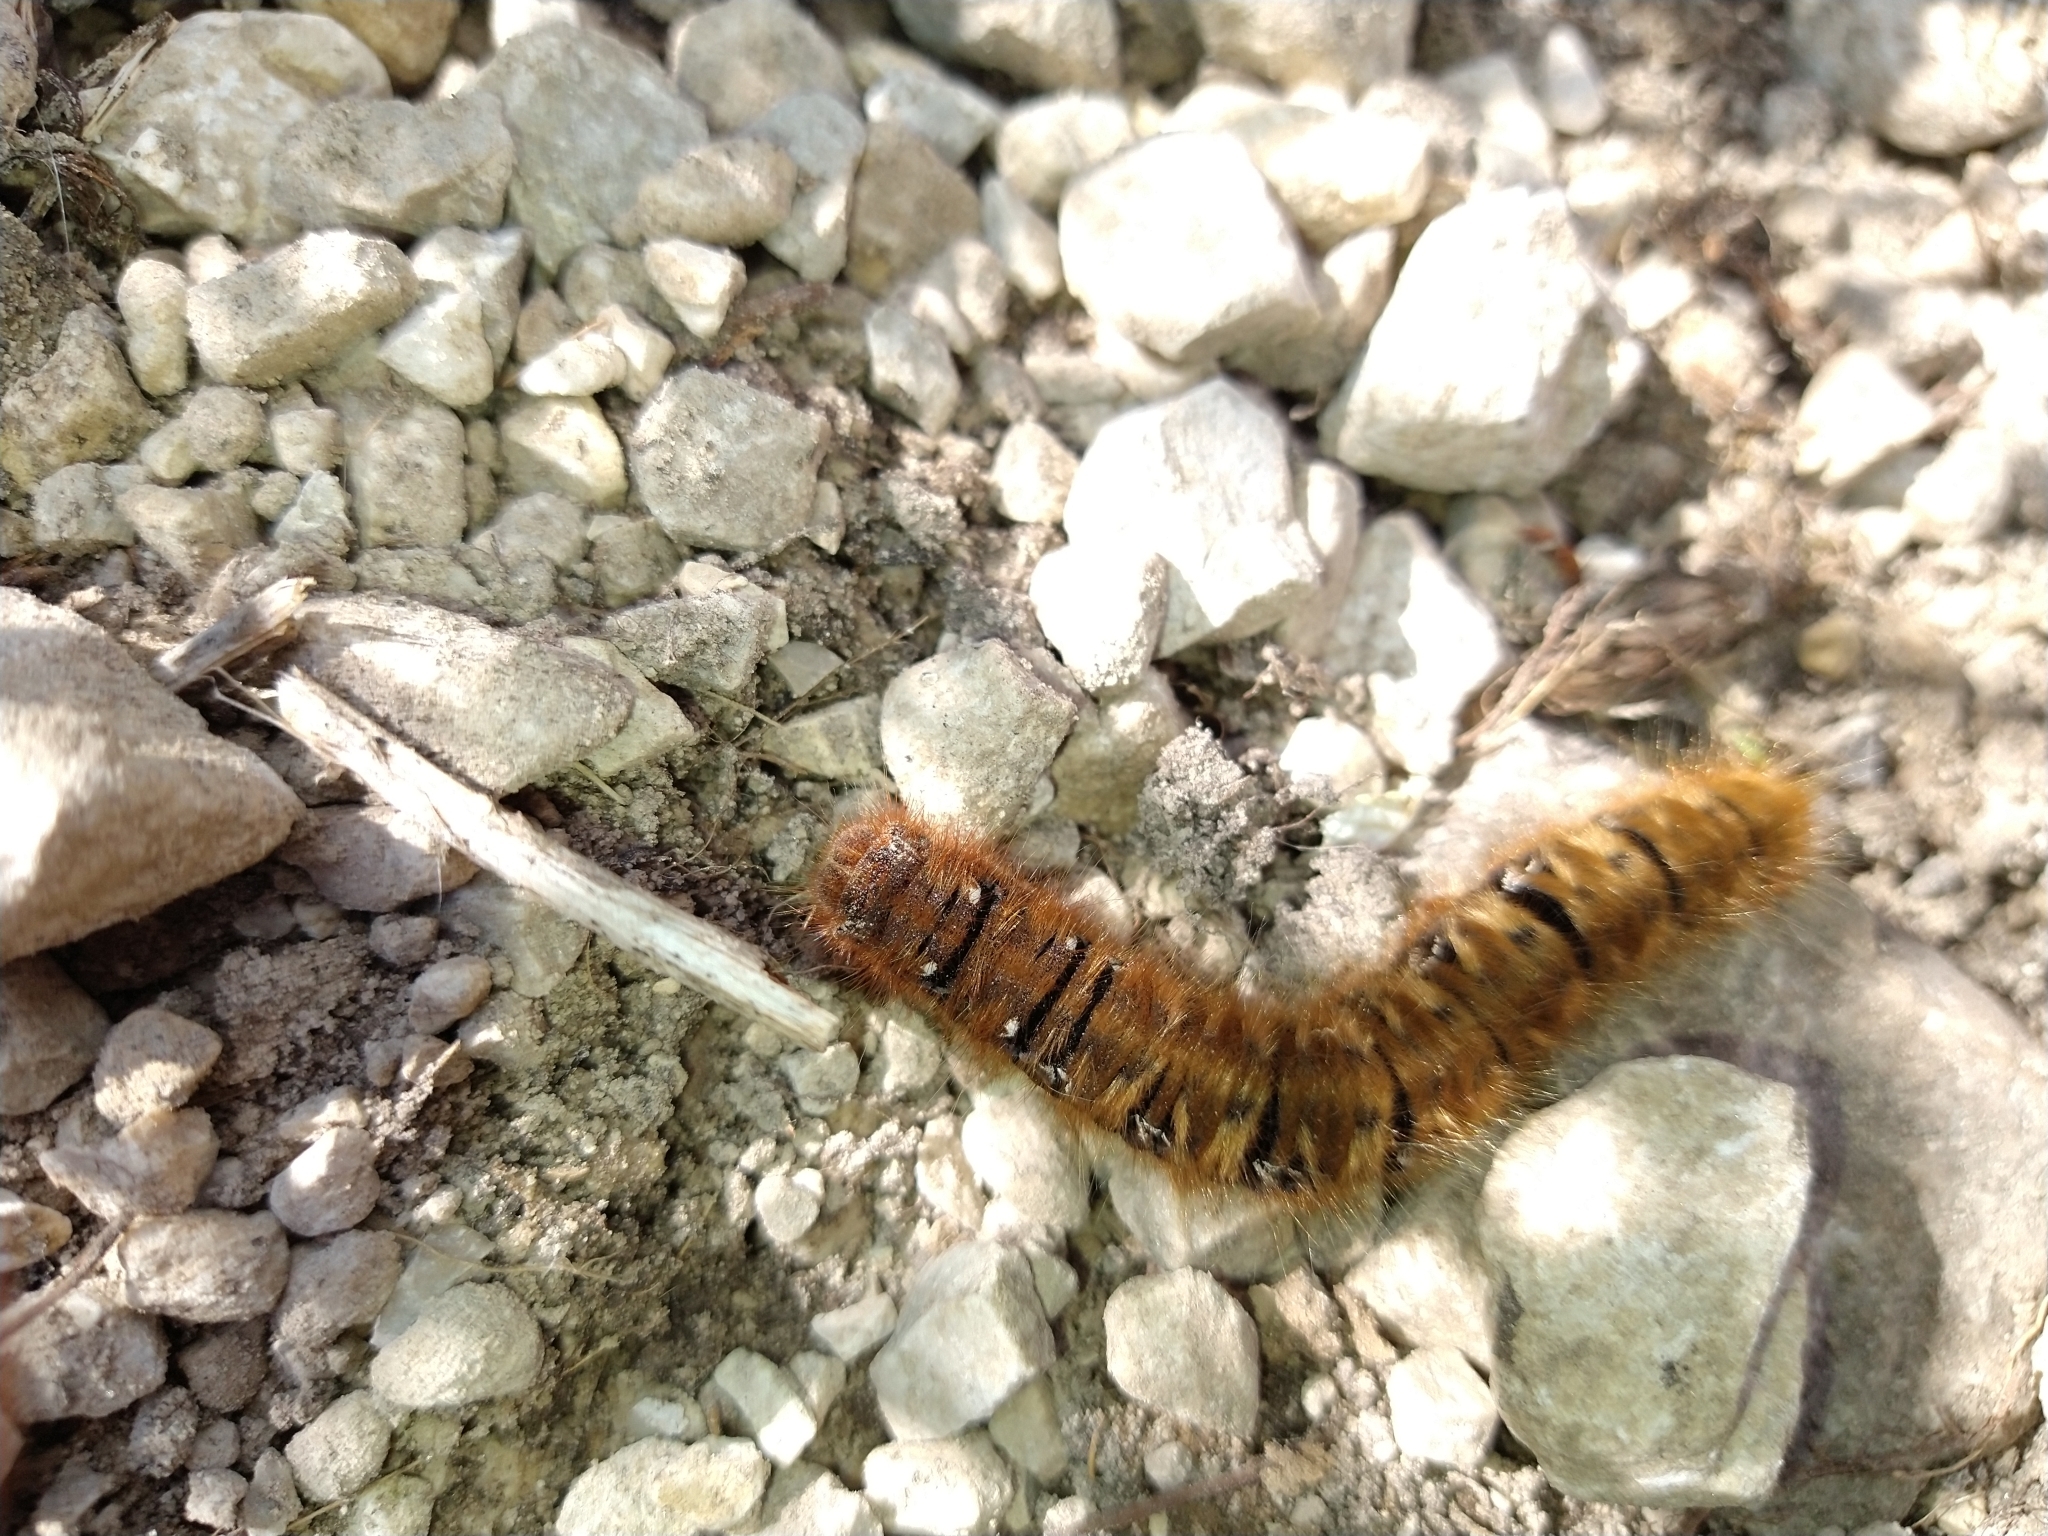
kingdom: Animalia
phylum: Arthropoda
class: Insecta
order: Lepidoptera
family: Lasiocampidae
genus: Lasiocampa
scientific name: Lasiocampa quercus
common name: Oak eggar
